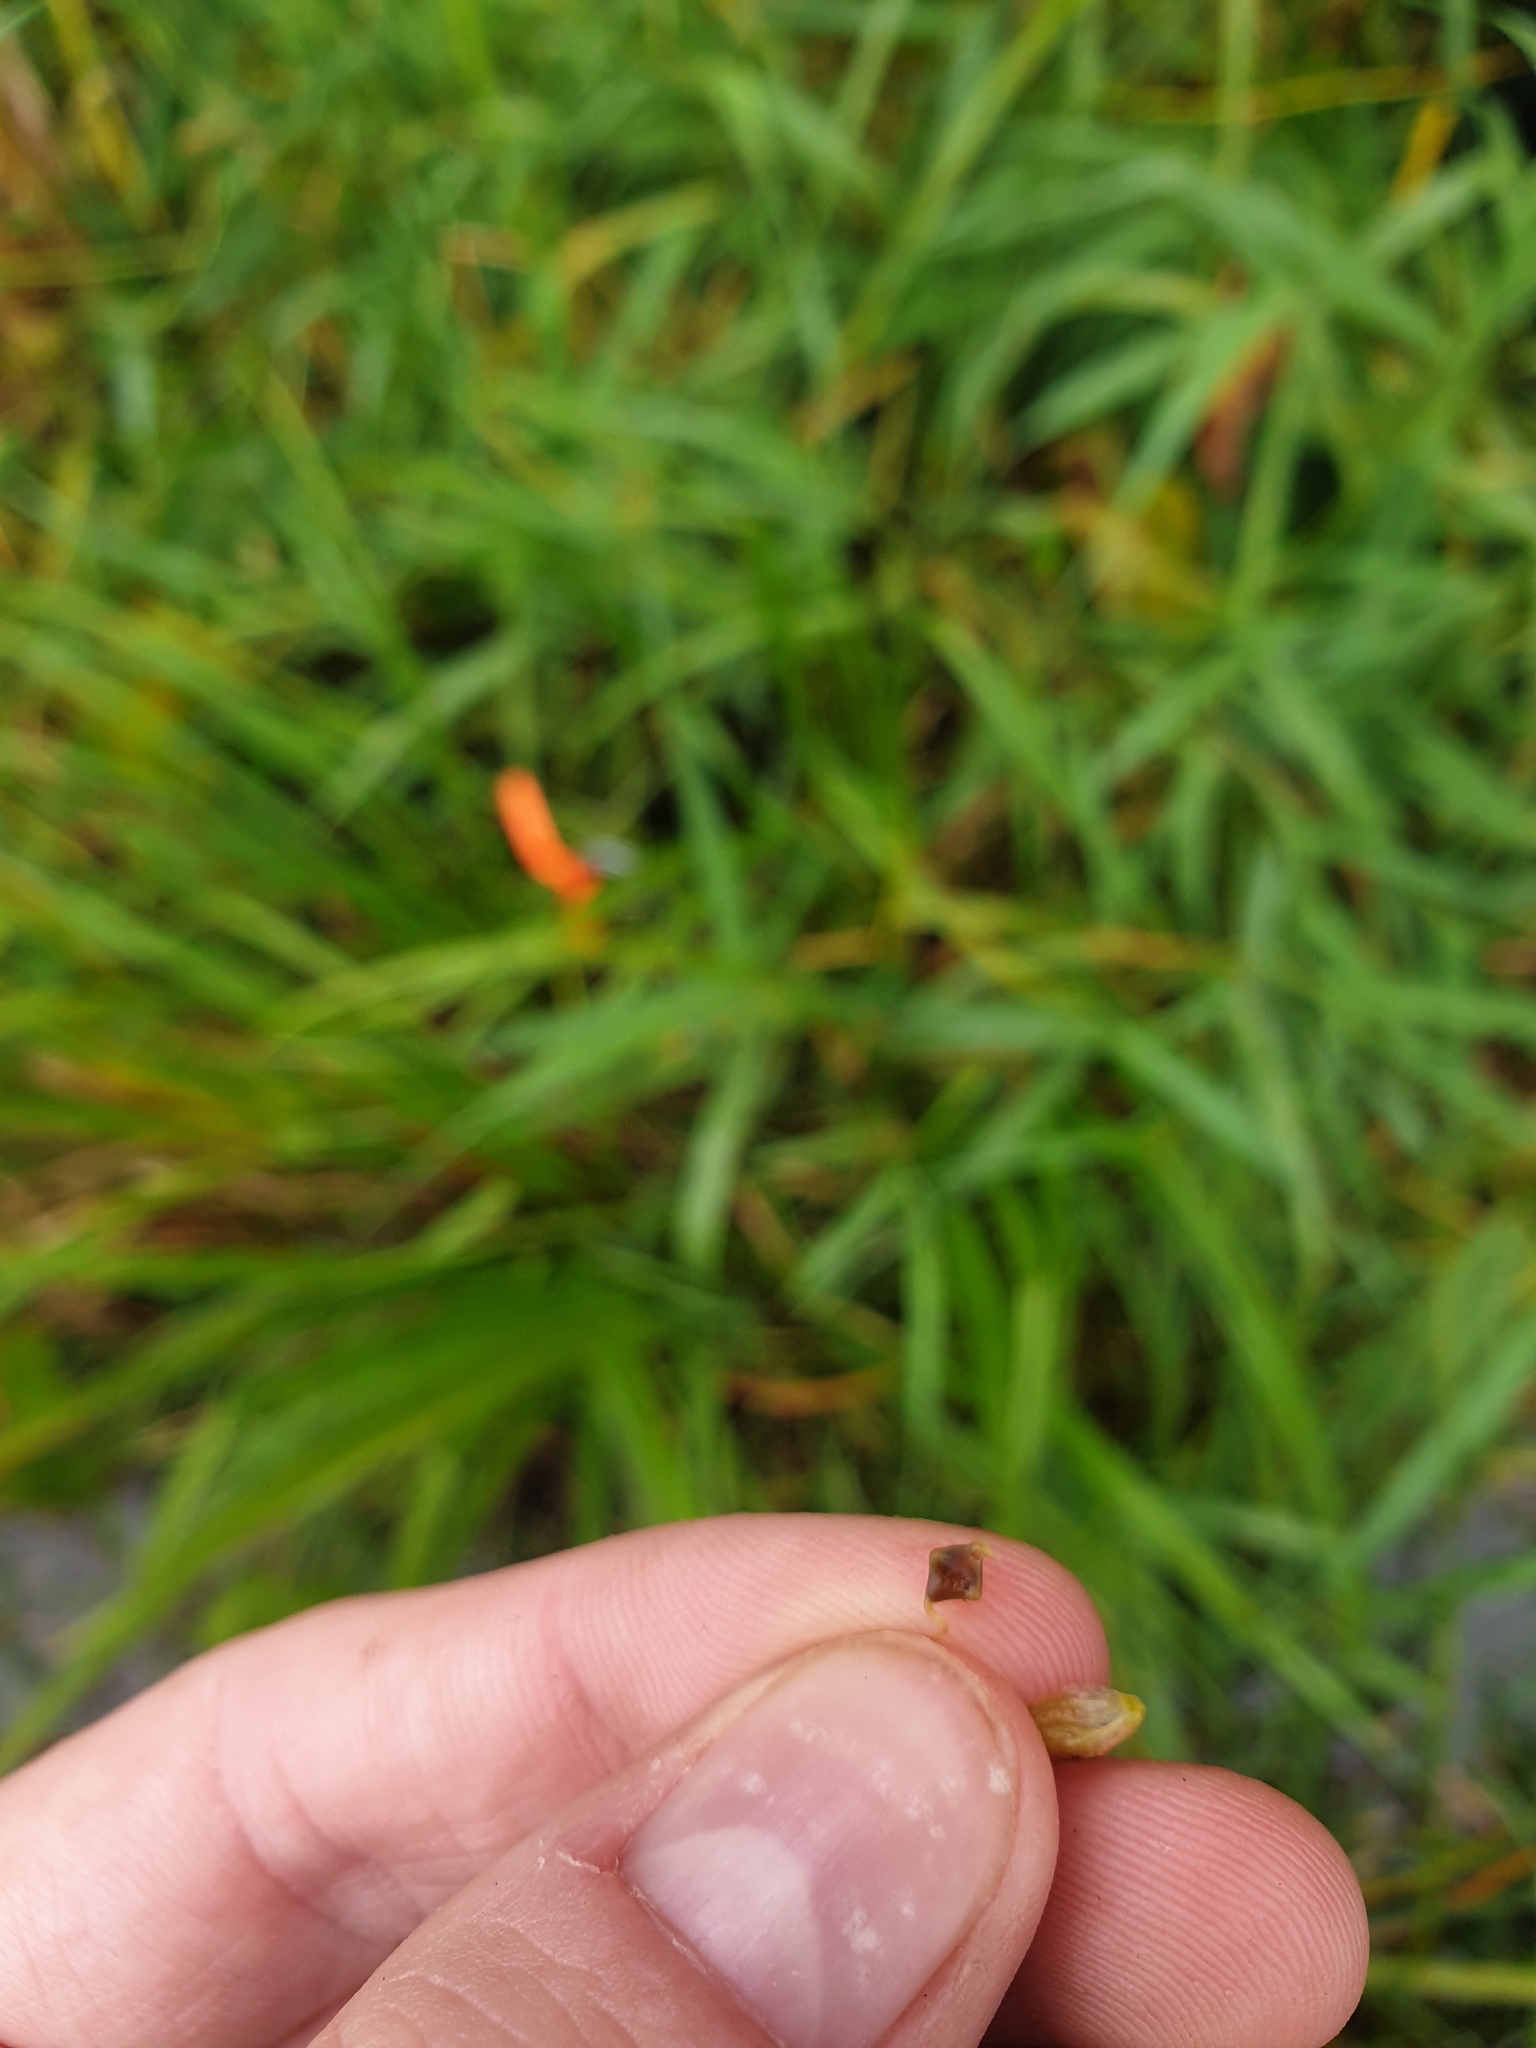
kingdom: Plantae
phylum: Tracheophyta
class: Liliopsida
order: Poales
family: Cyperaceae
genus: Carex
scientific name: Carex lupuliformis
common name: False hop sedge
